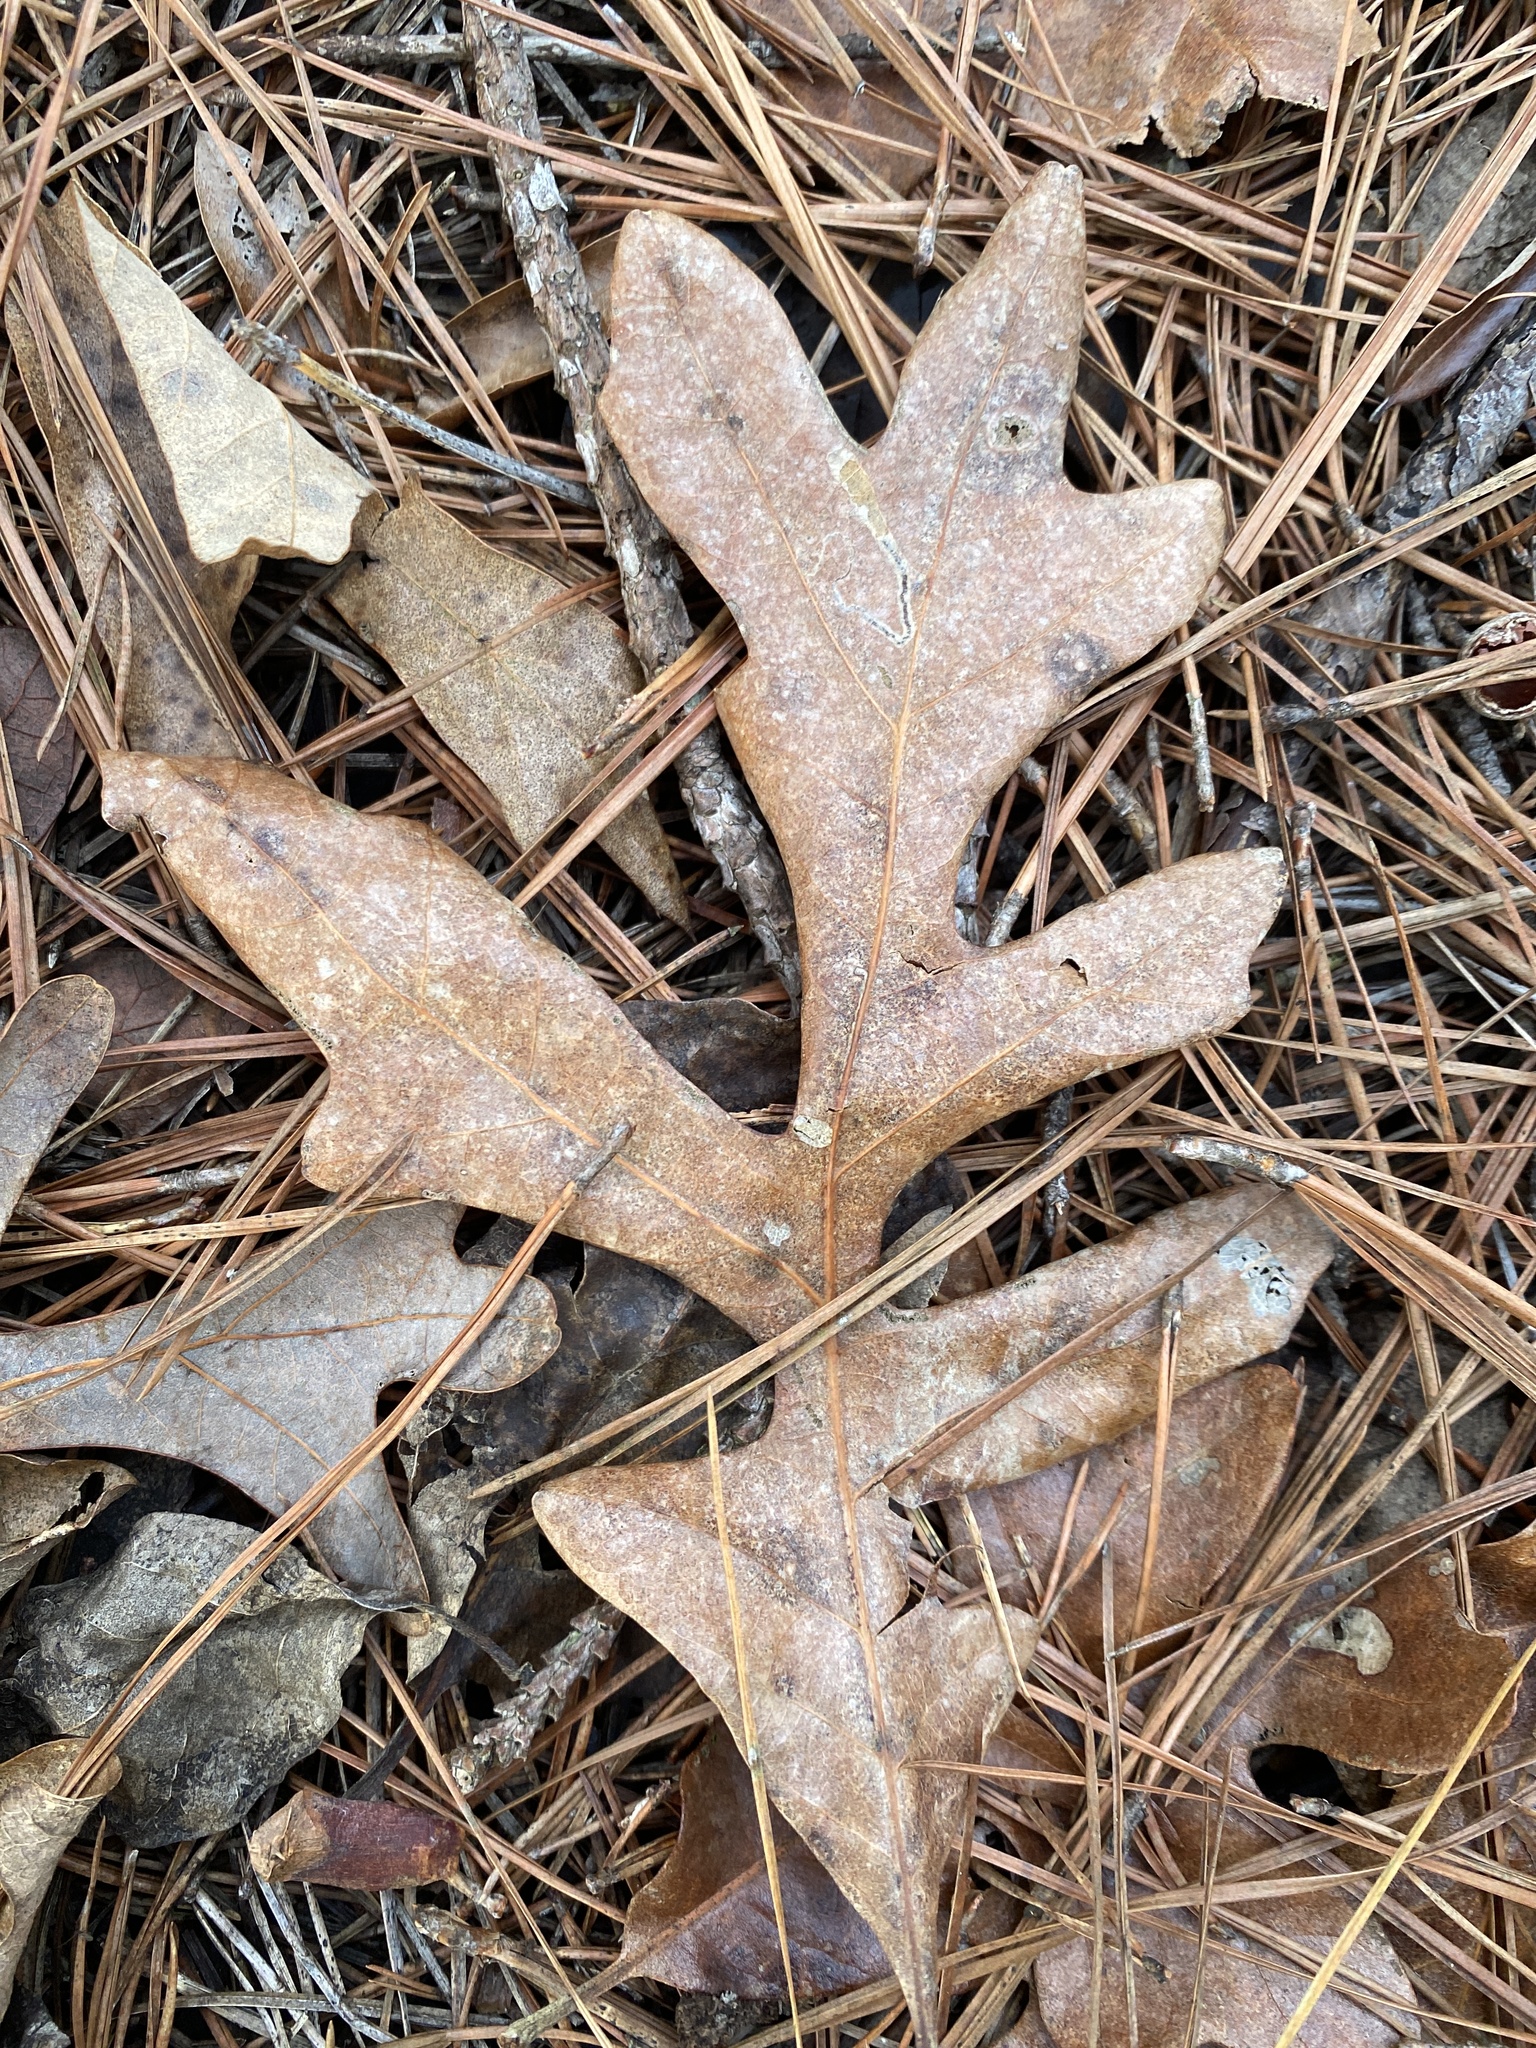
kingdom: Plantae
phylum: Tracheophyta
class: Magnoliopsida
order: Fagales
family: Fagaceae
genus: Quercus
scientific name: Quercus alba
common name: White oak
